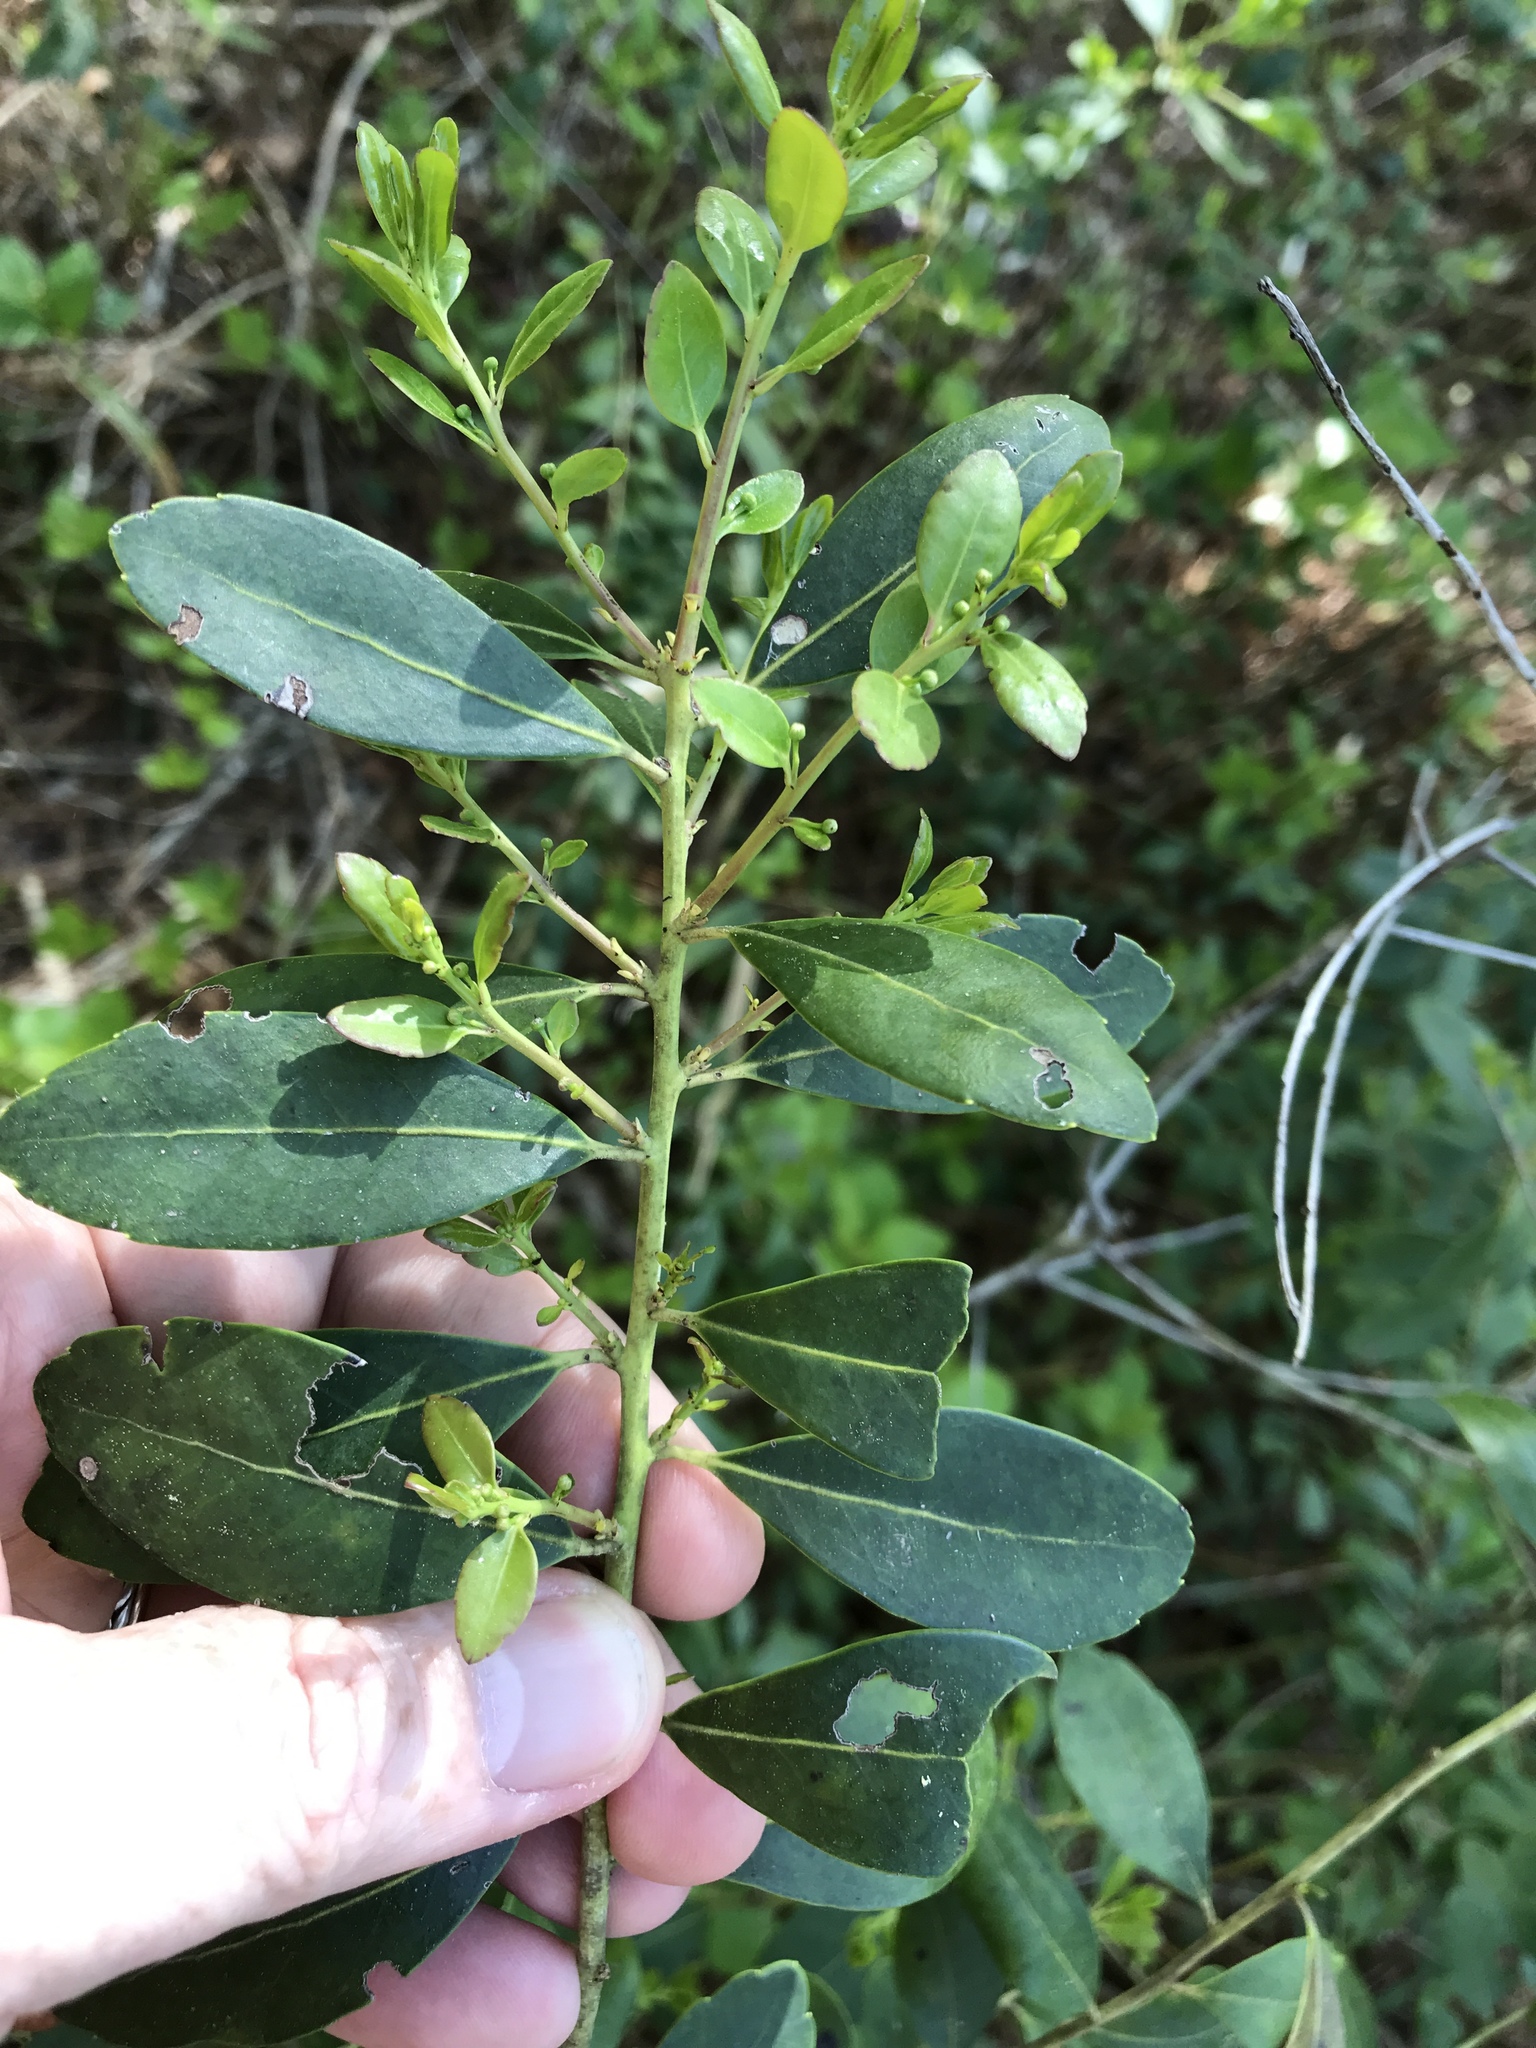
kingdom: Plantae
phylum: Tracheophyta
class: Magnoliopsida
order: Aquifoliales
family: Aquifoliaceae
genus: Ilex
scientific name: Ilex glabra
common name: Bitter gallberry
